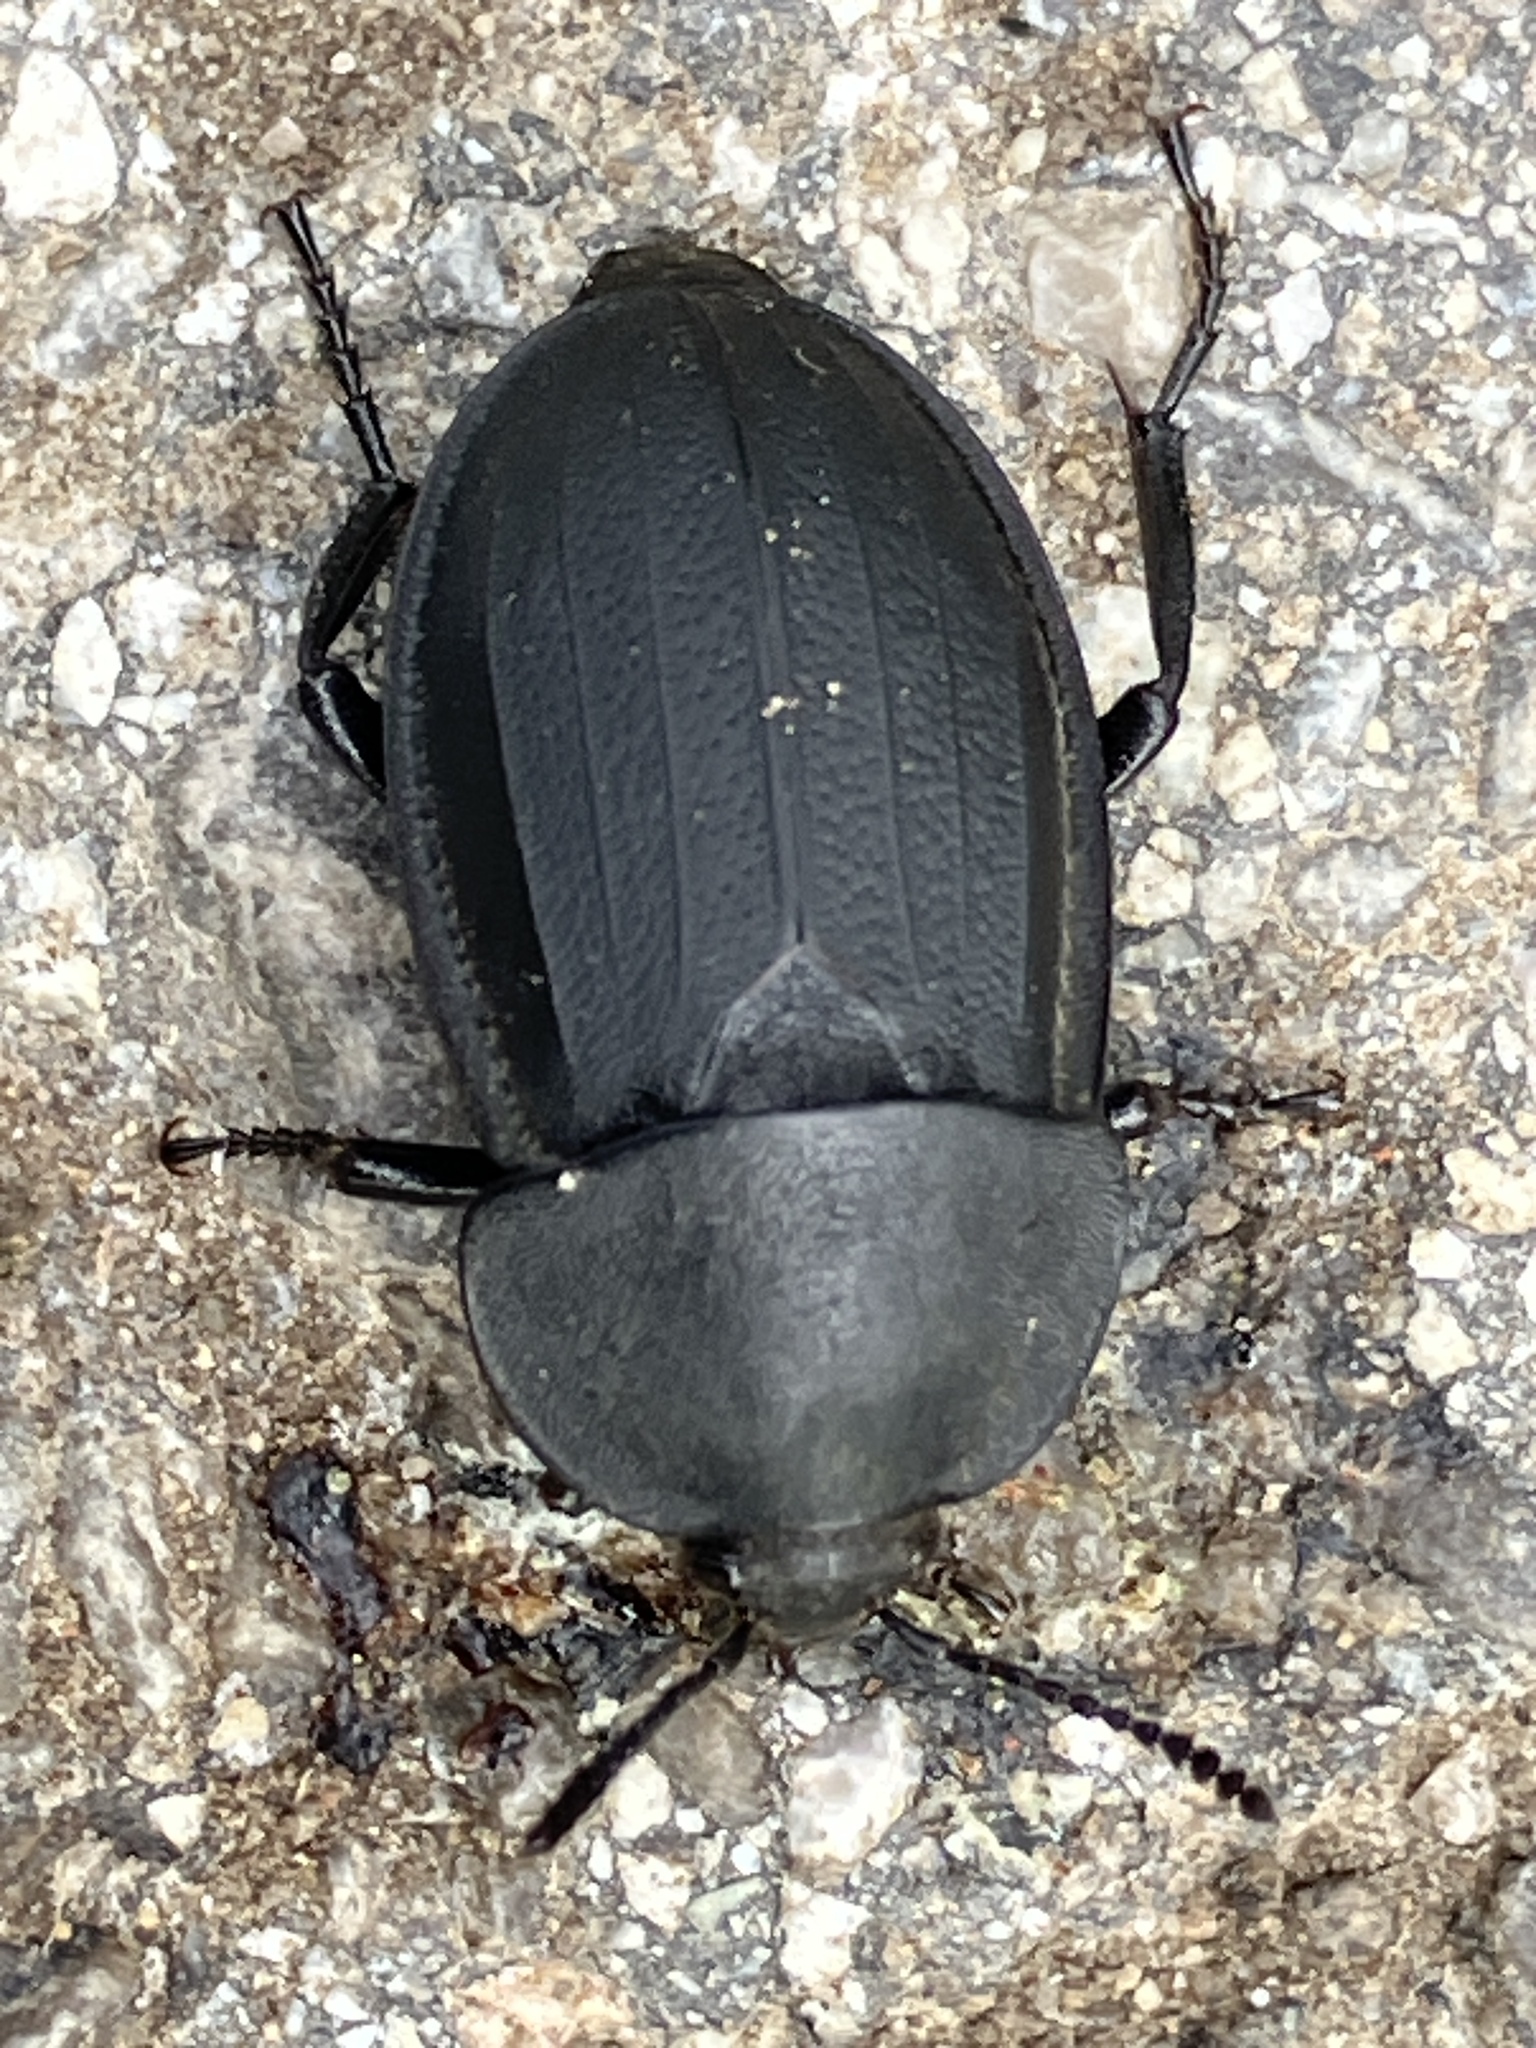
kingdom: Animalia
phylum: Arthropoda
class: Insecta
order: Coleoptera
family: Staphylinidae
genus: Silpha
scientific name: Silpha obscura
